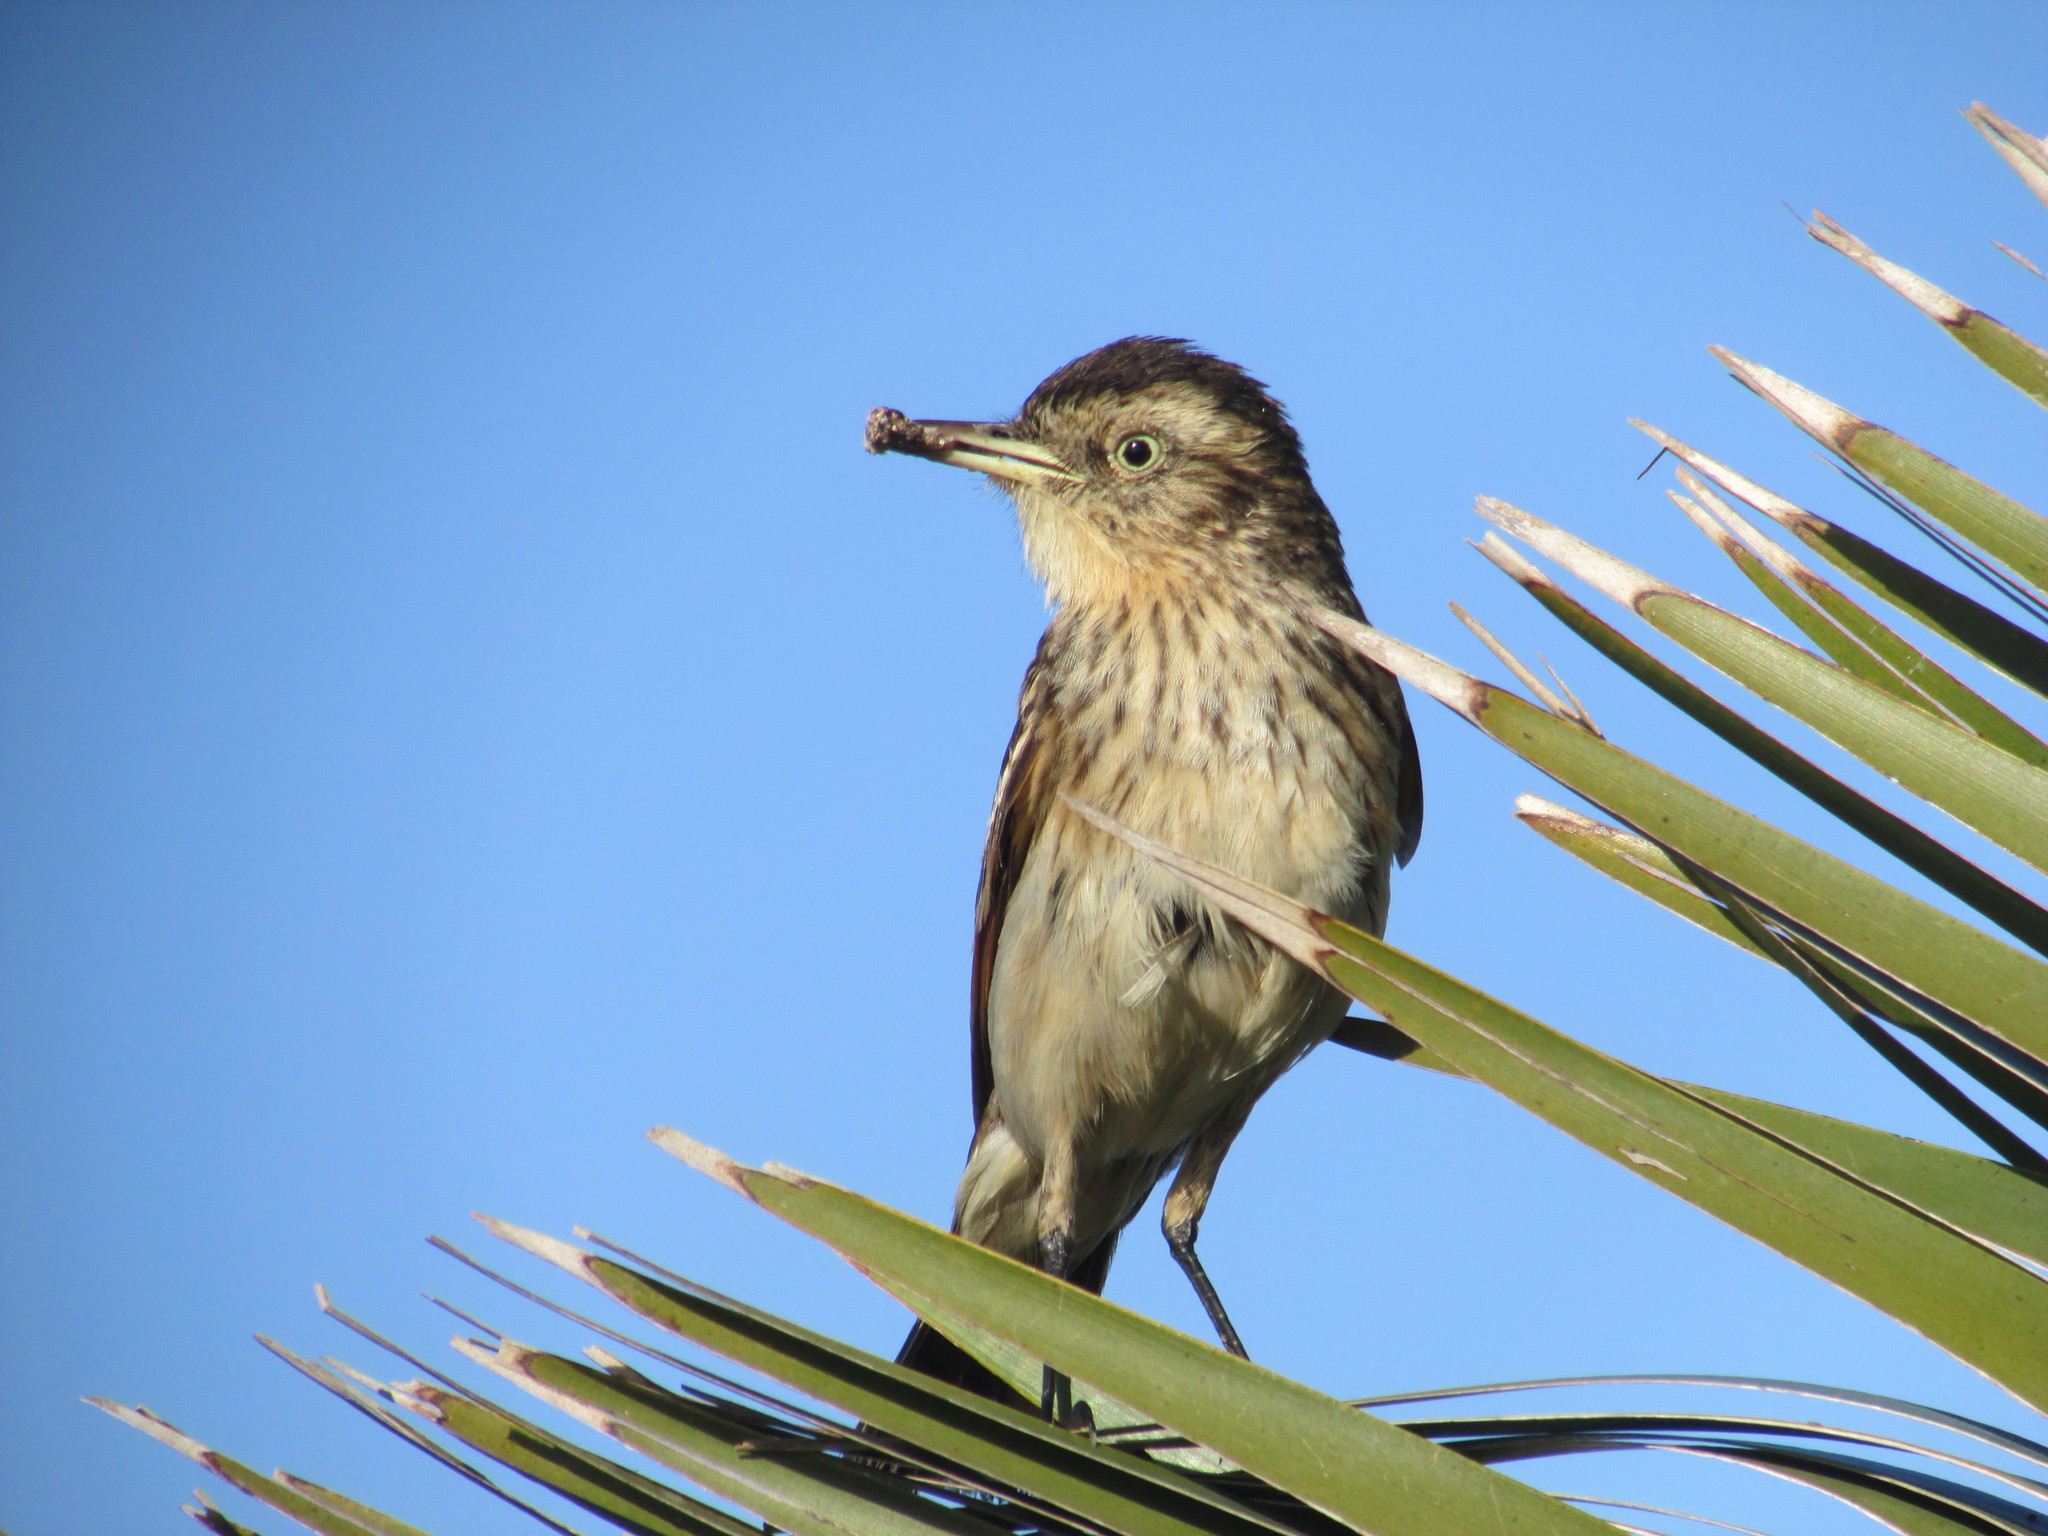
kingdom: Animalia
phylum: Chordata
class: Aves
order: Passeriformes
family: Tyrannidae
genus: Hymenops
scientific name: Hymenops perspicillatus
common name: Spectacled tyrant
